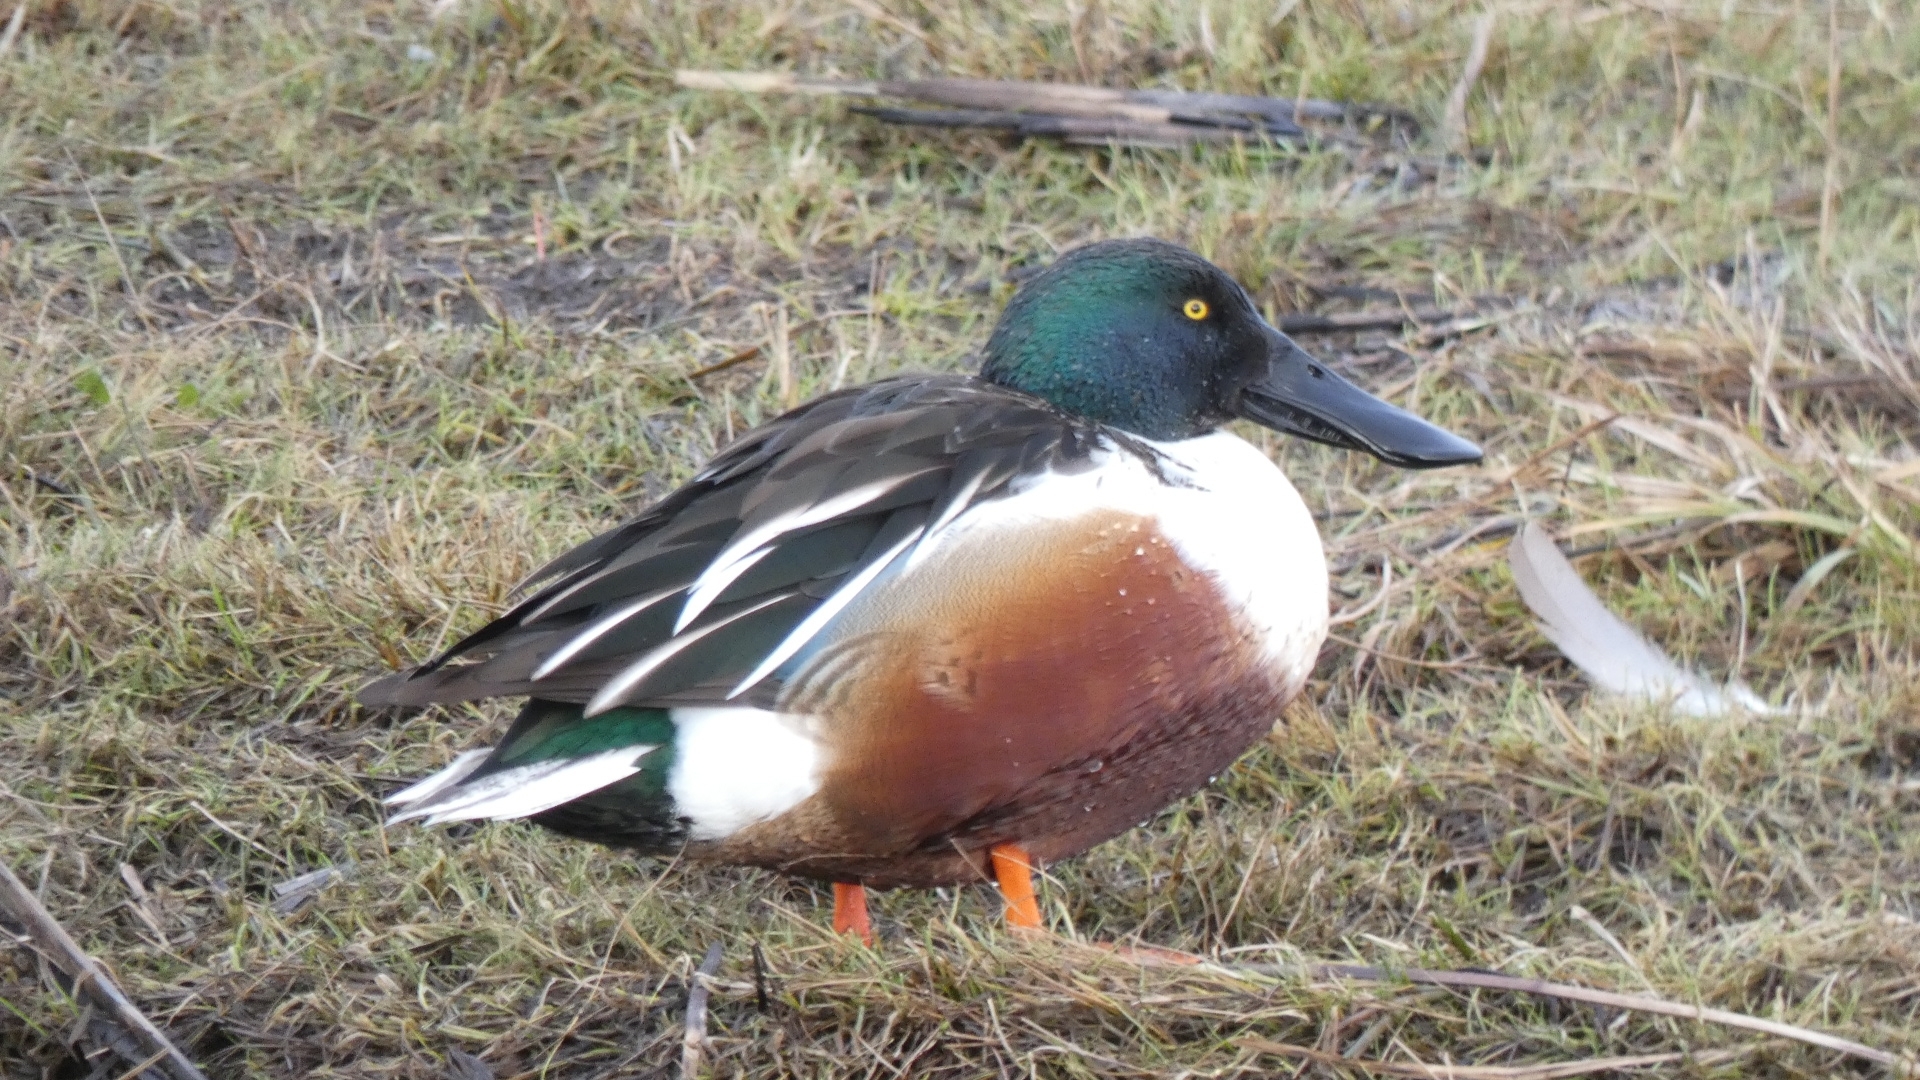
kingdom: Animalia
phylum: Chordata
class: Aves
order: Anseriformes
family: Anatidae
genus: Spatula
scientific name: Spatula clypeata
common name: Northern shoveler
